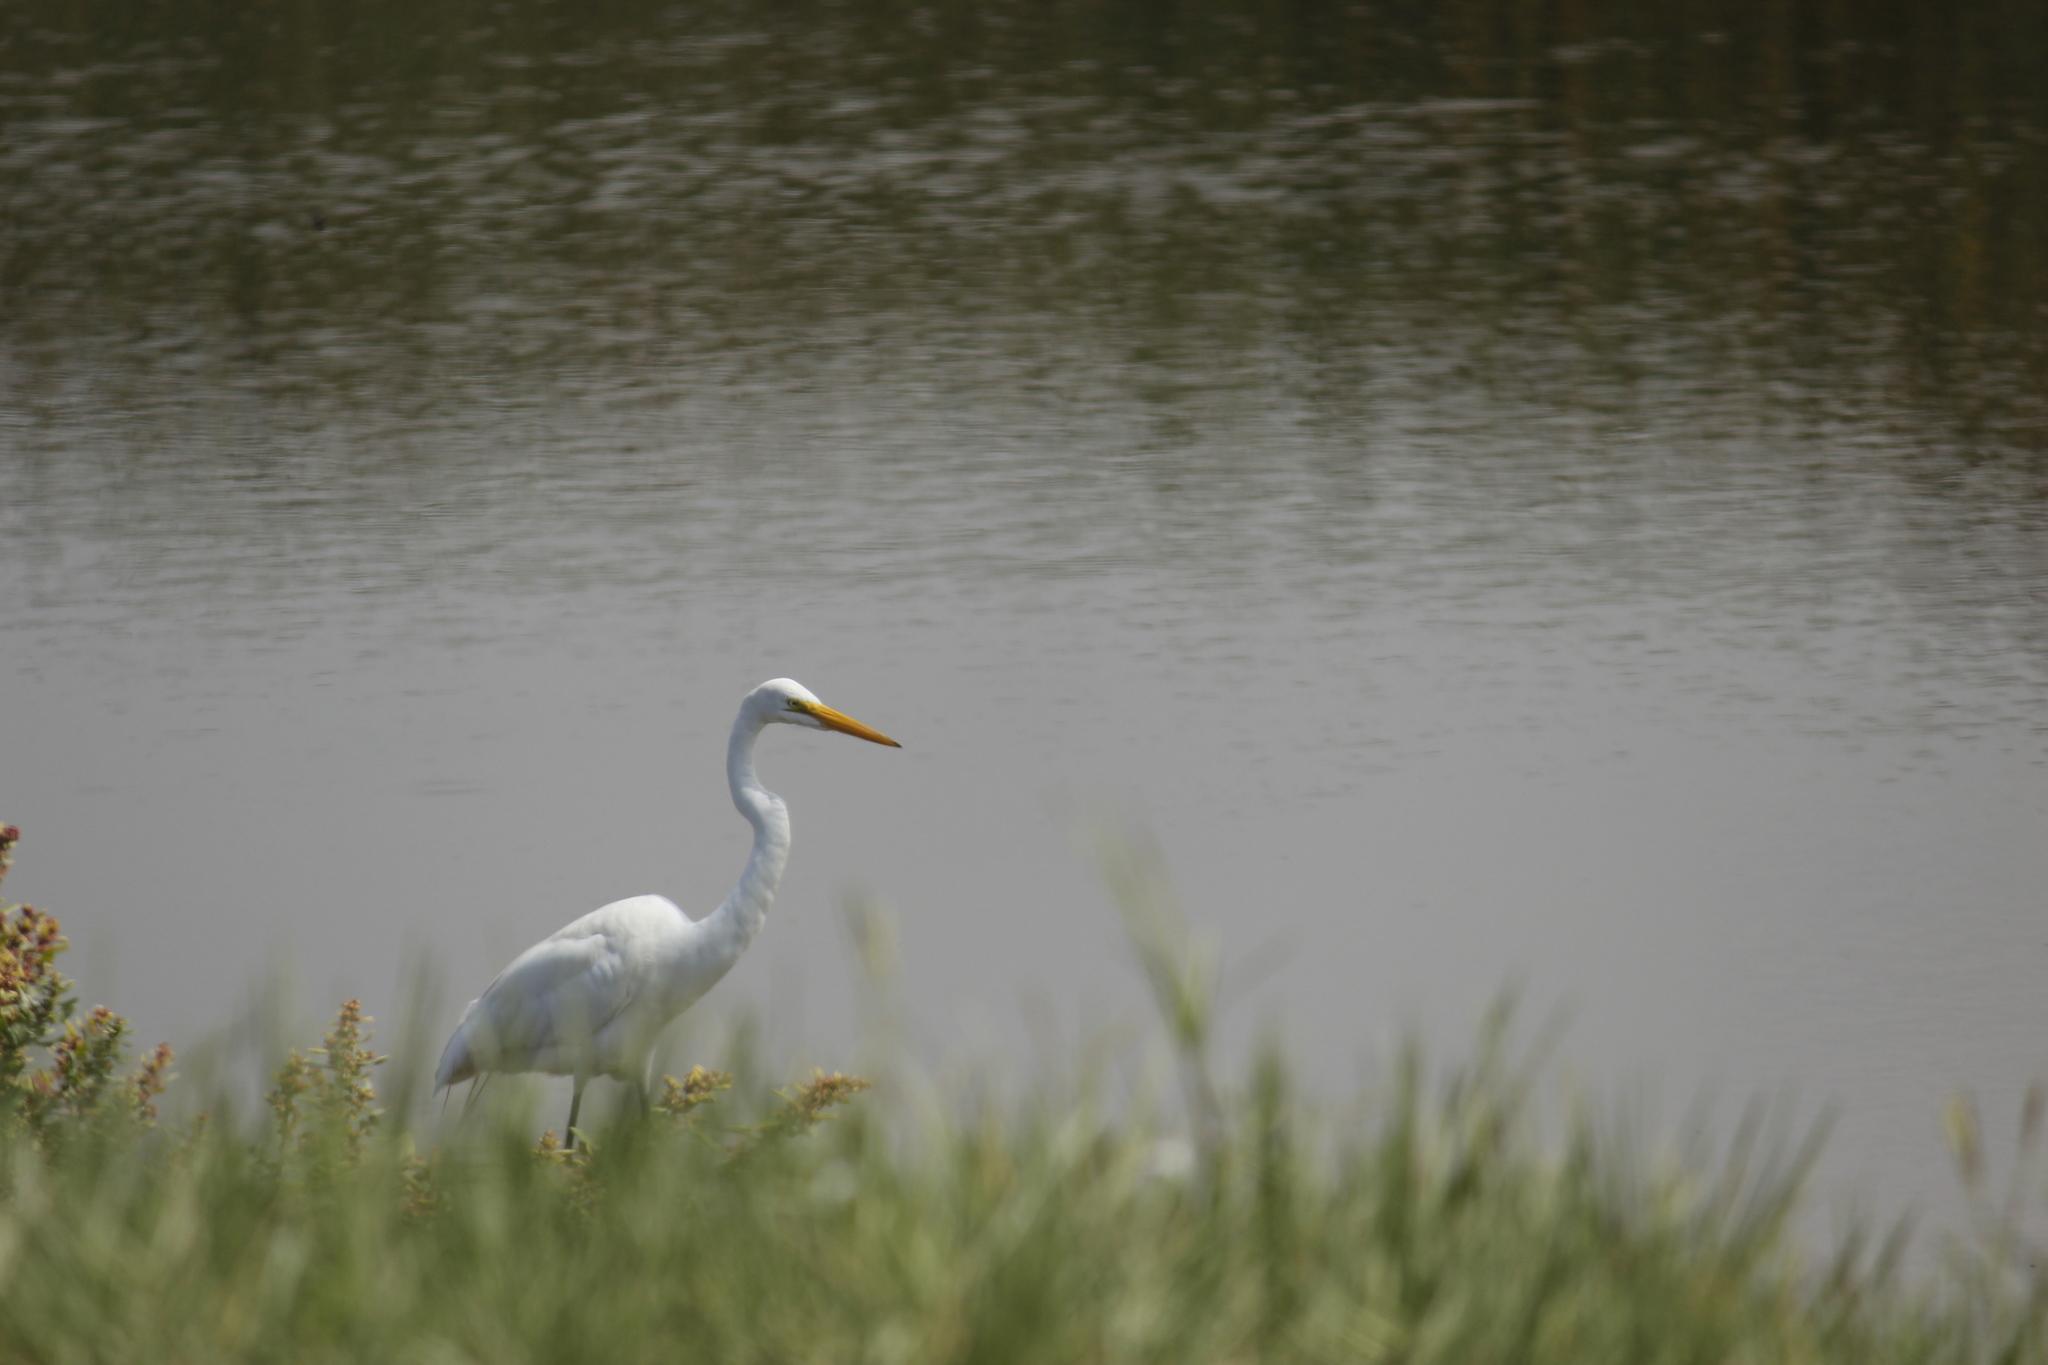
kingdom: Animalia
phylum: Chordata
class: Aves
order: Pelecaniformes
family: Ardeidae
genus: Ardea
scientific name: Ardea alba
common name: Great egret
